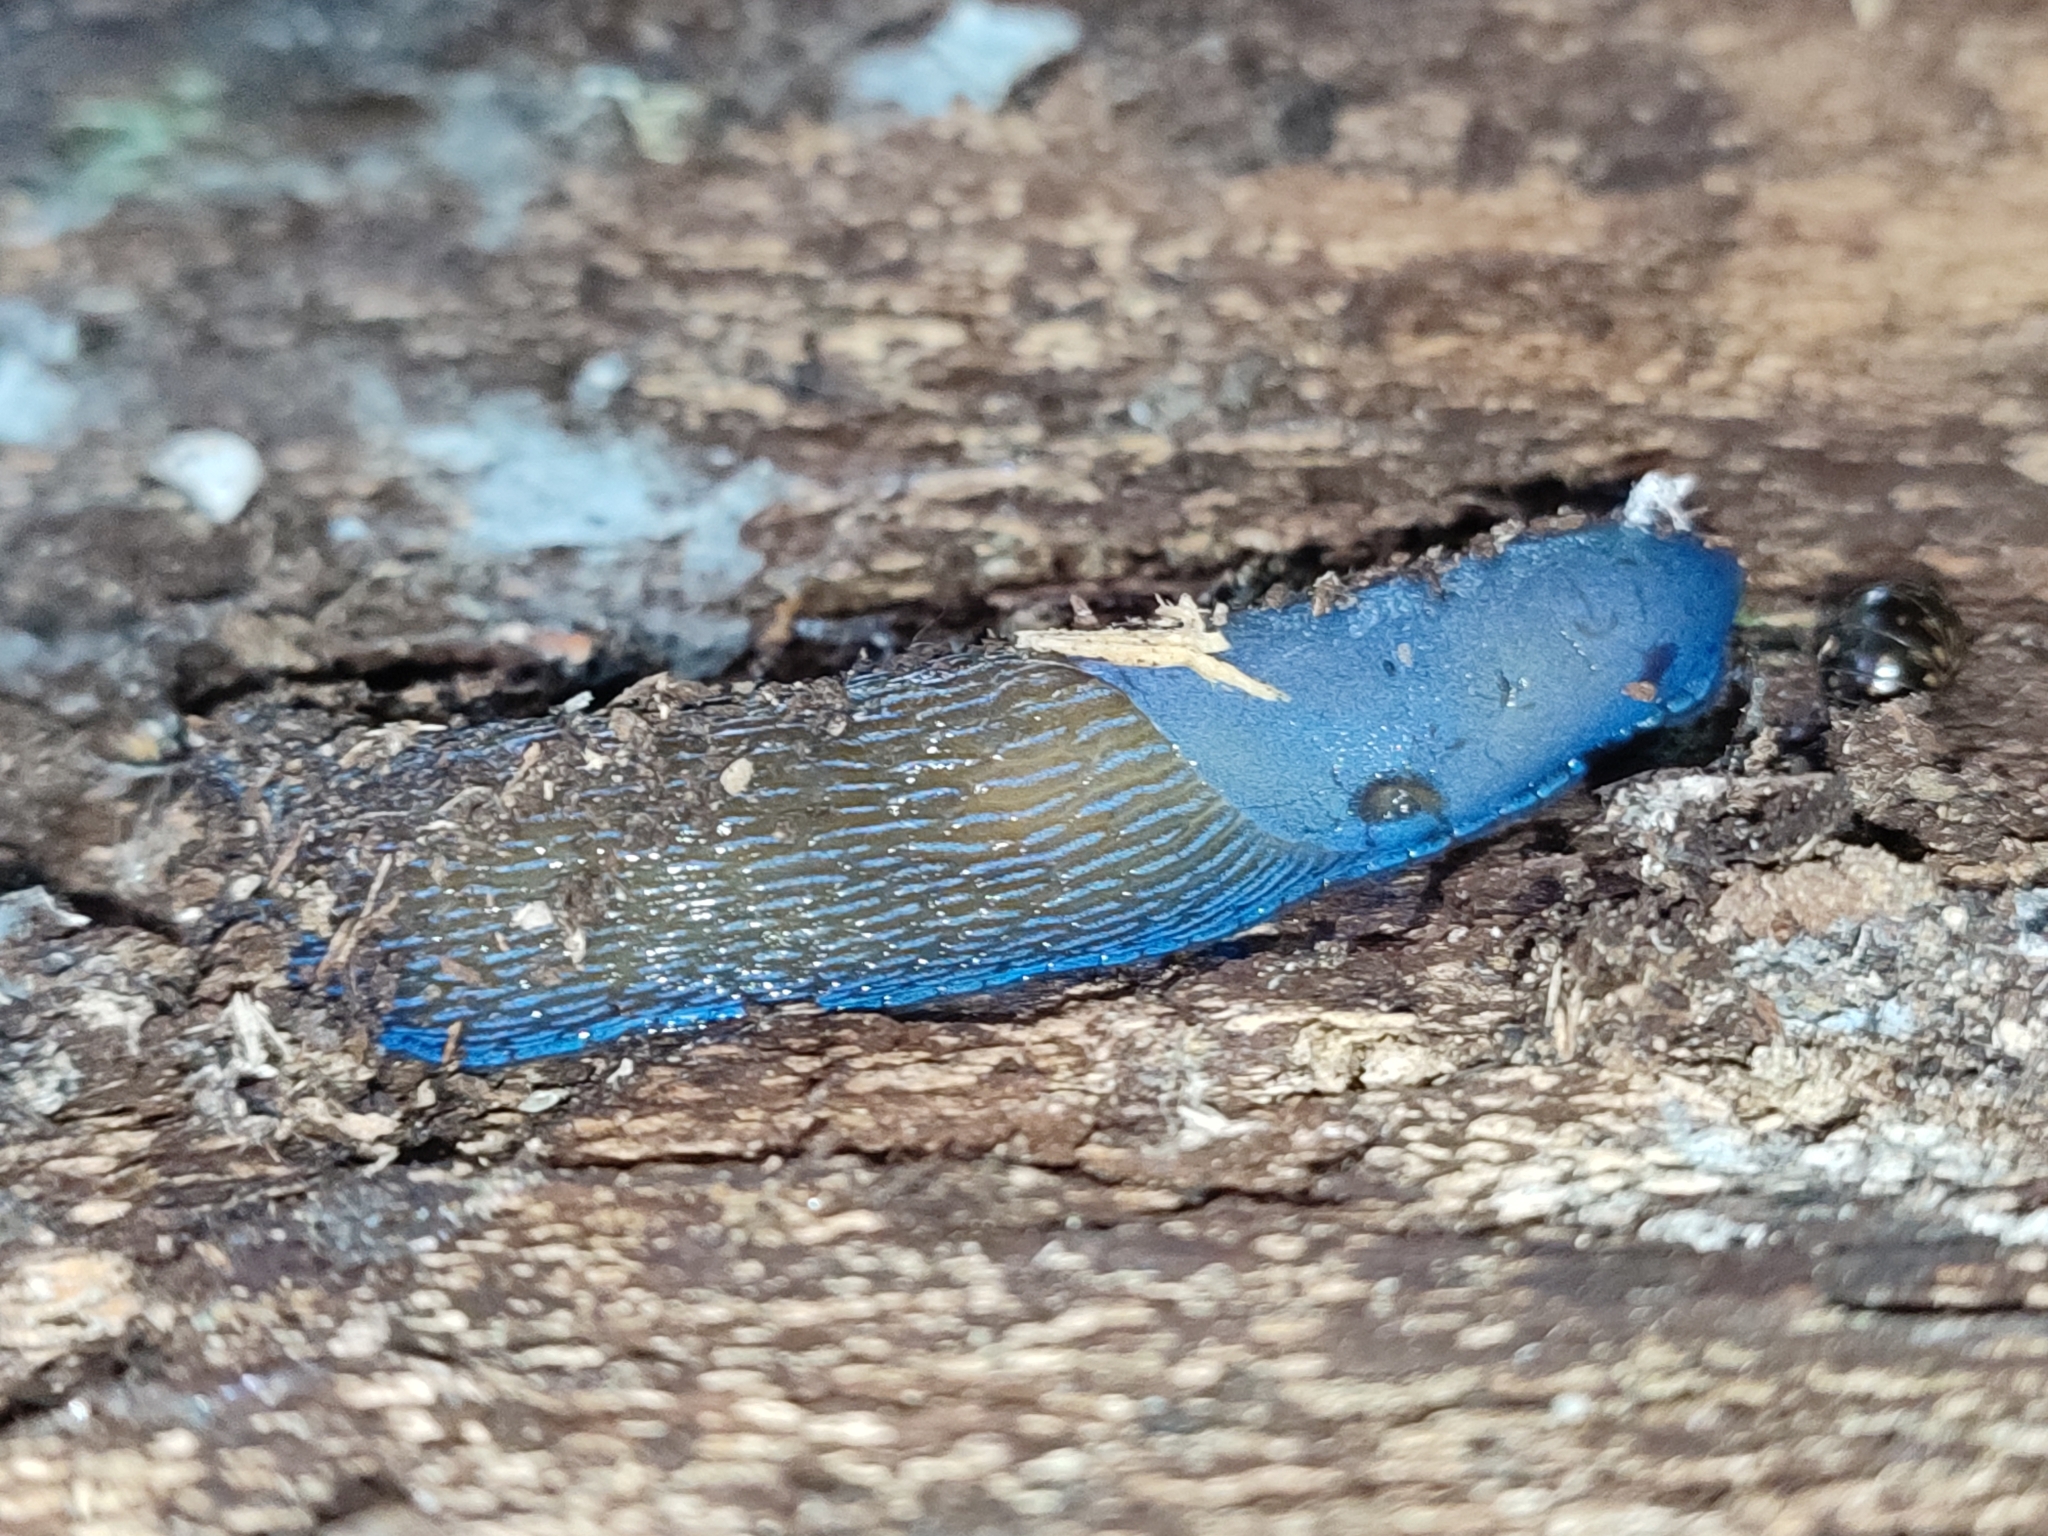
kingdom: Animalia
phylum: Mollusca
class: Gastropoda
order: Stylommatophora
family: Limacidae
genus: Bielzia
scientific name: Bielzia coerulans
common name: Carpathian blue slug
